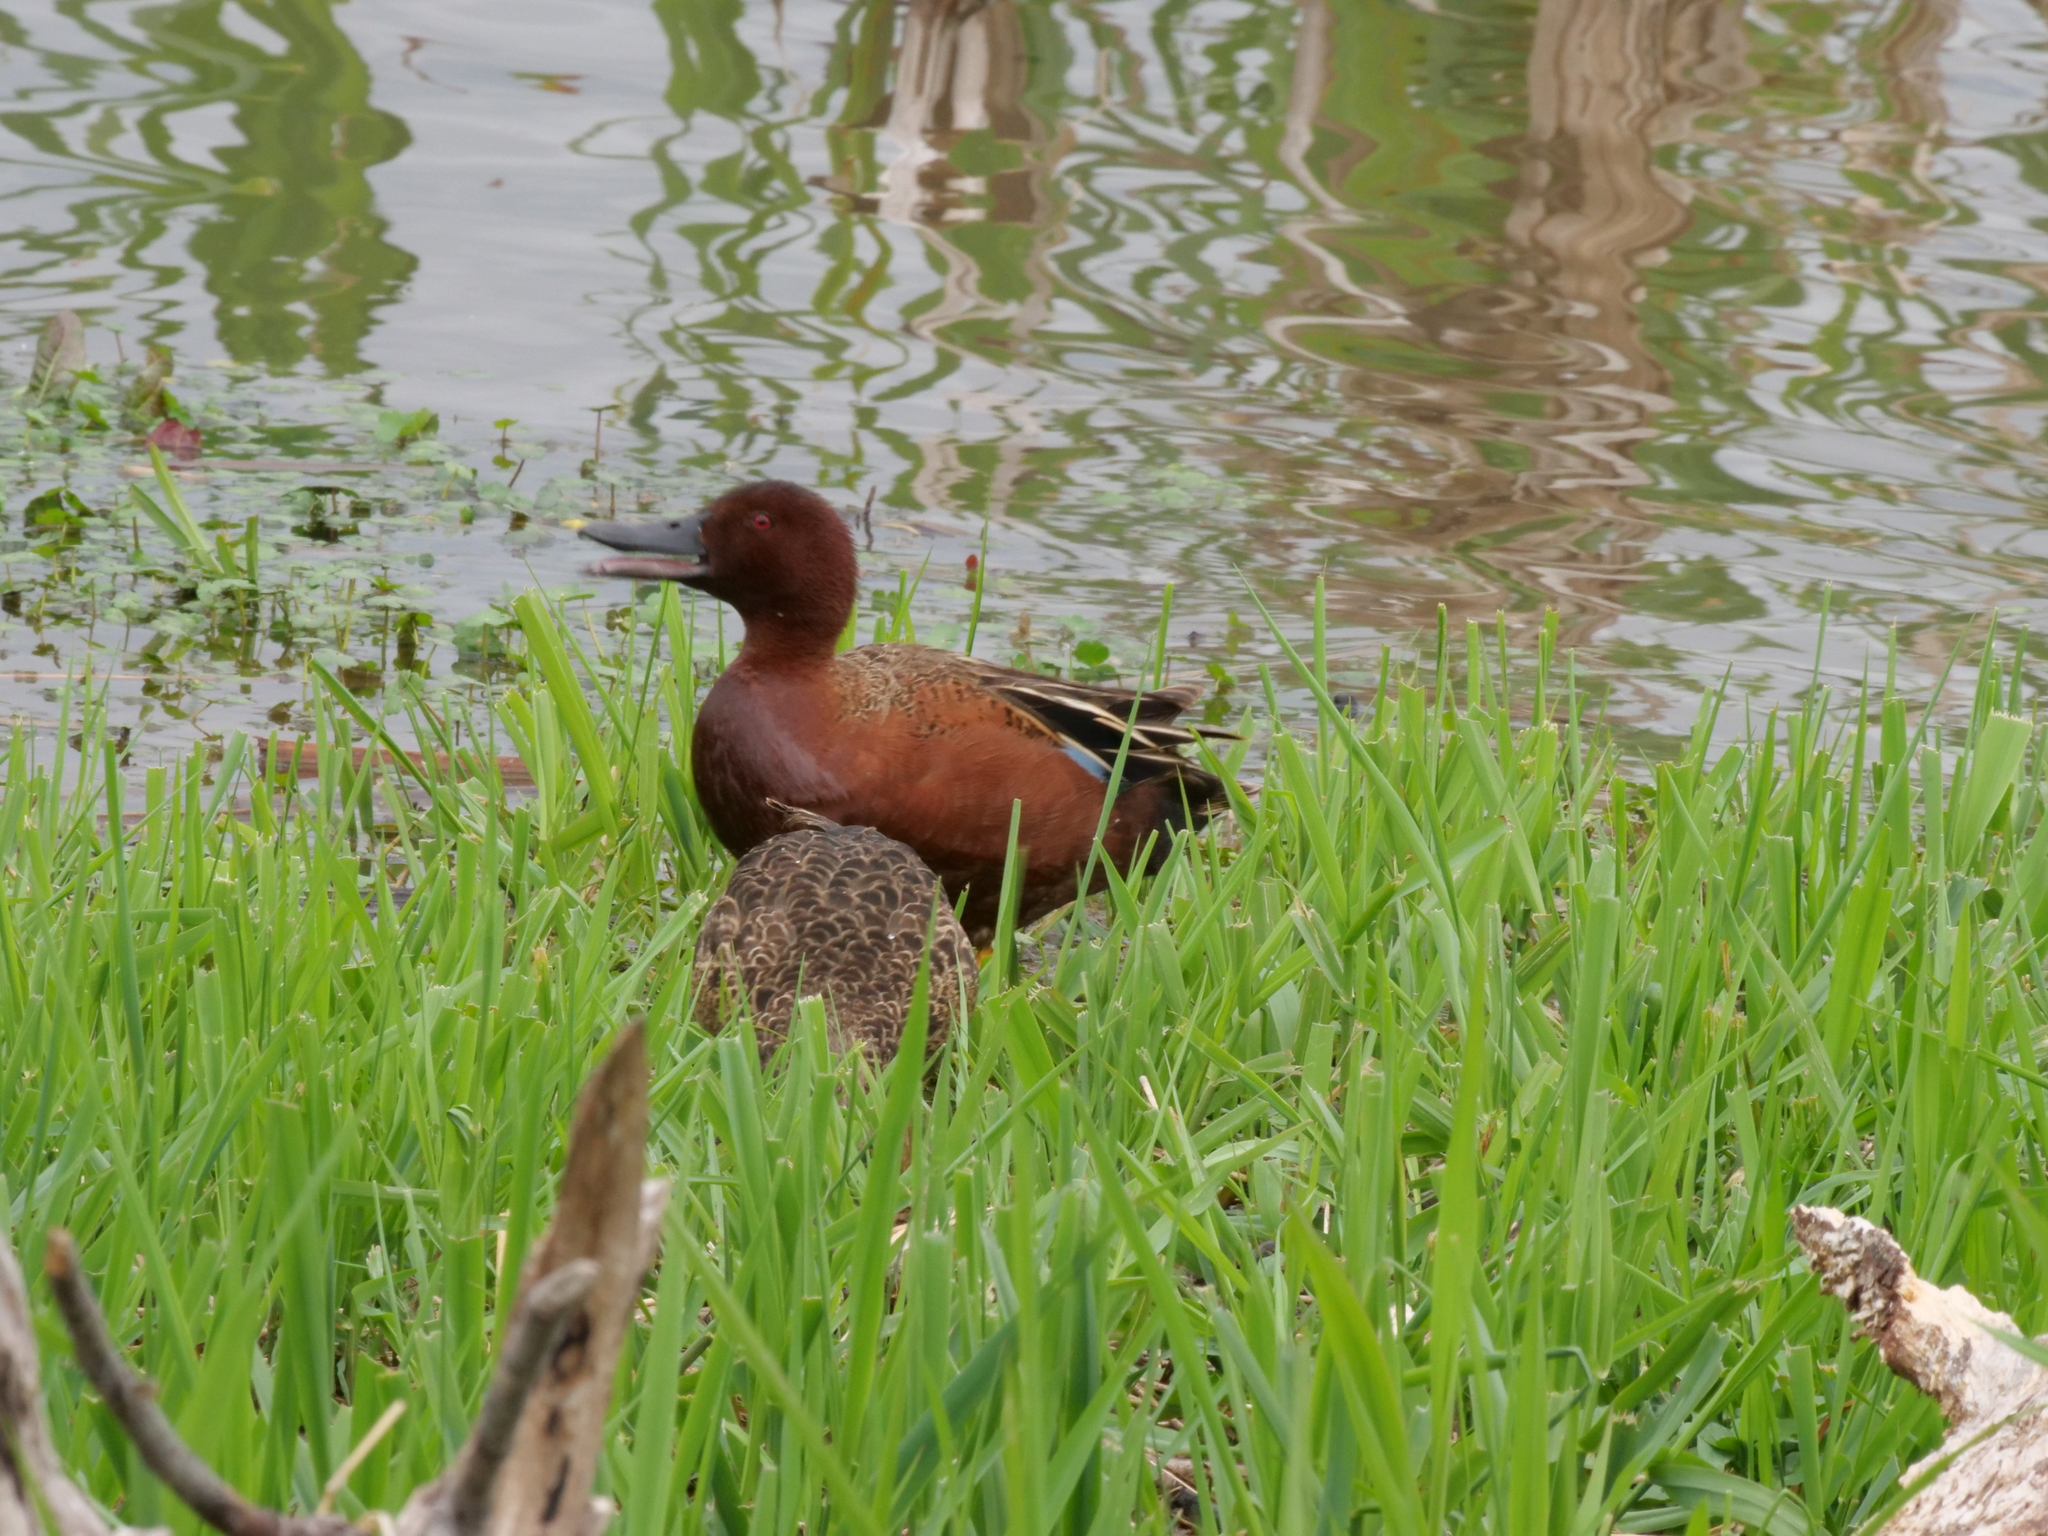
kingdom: Animalia
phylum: Chordata
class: Aves
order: Anseriformes
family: Anatidae
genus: Spatula
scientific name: Spatula cyanoptera
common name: Cinnamon teal
